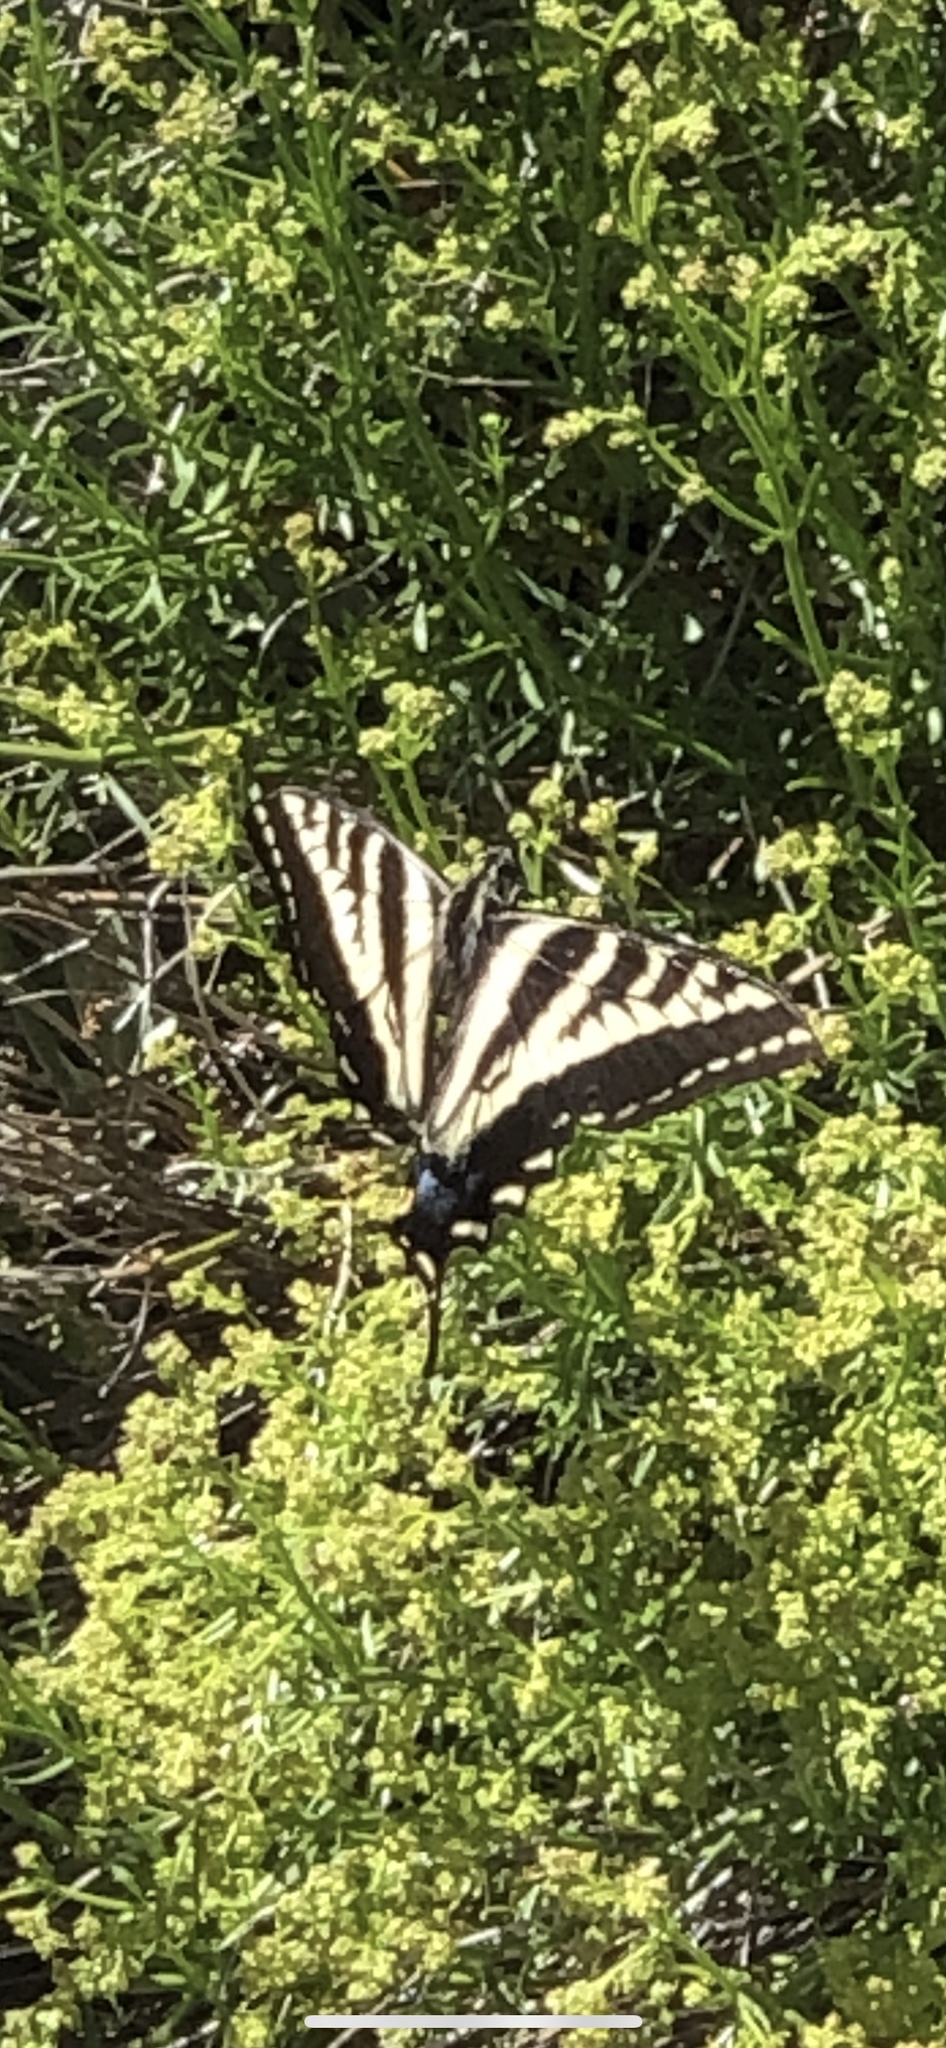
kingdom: Animalia
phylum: Arthropoda
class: Insecta
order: Lepidoptera
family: Papilionidae
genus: Papilio
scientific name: Papilio eurymedon
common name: Pale tiger swallowtail
